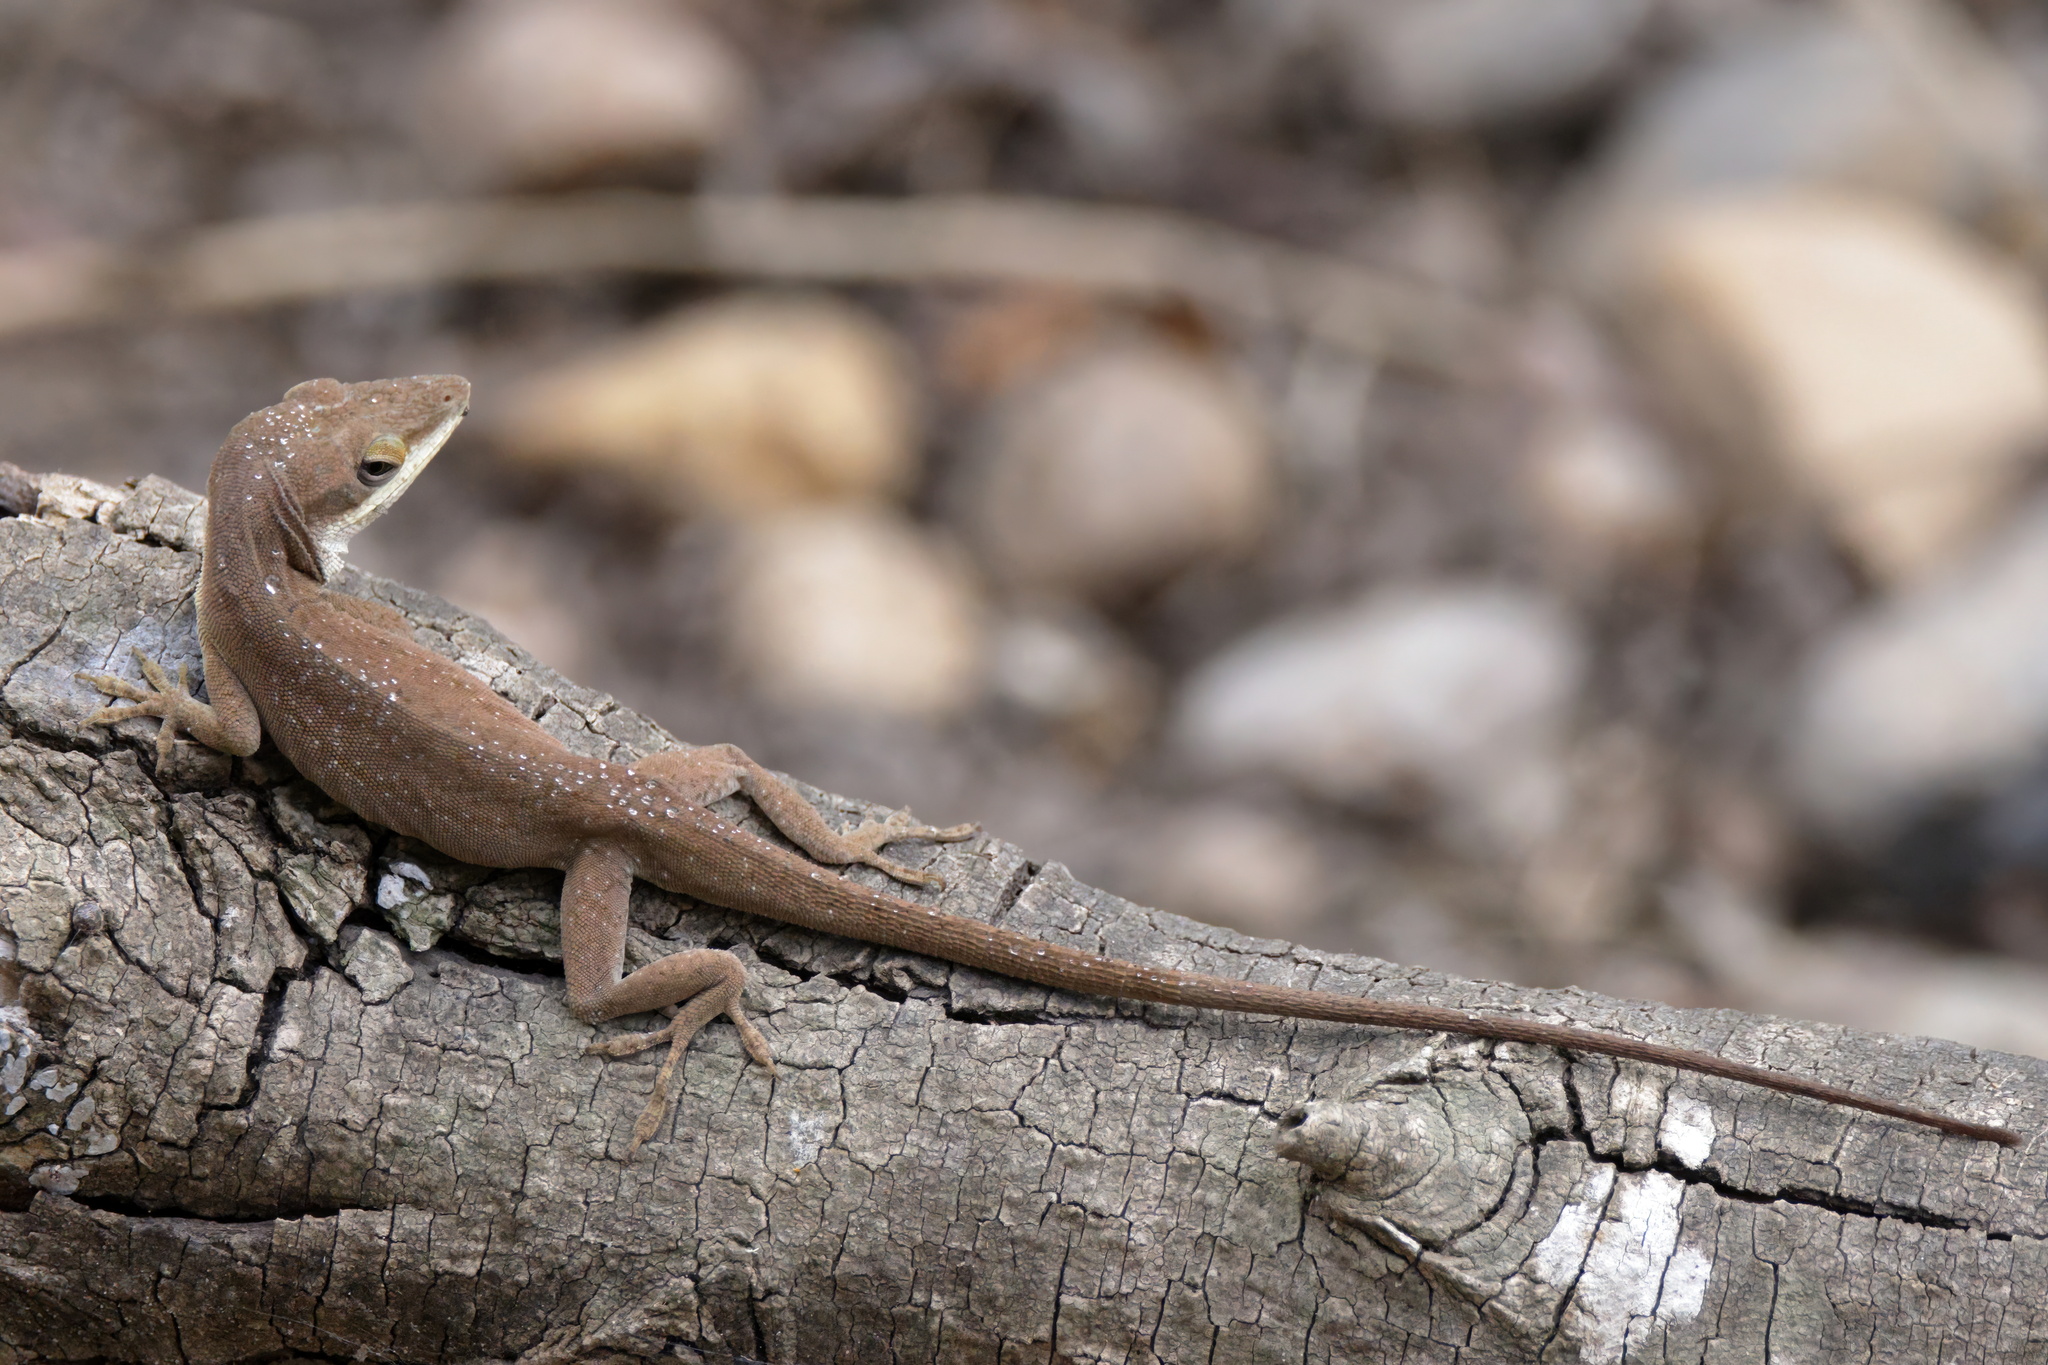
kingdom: Animalia
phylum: Chordata
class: Squamata
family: Dactyloidae
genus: Anolis
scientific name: Anolis carolinensis
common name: Green anole
